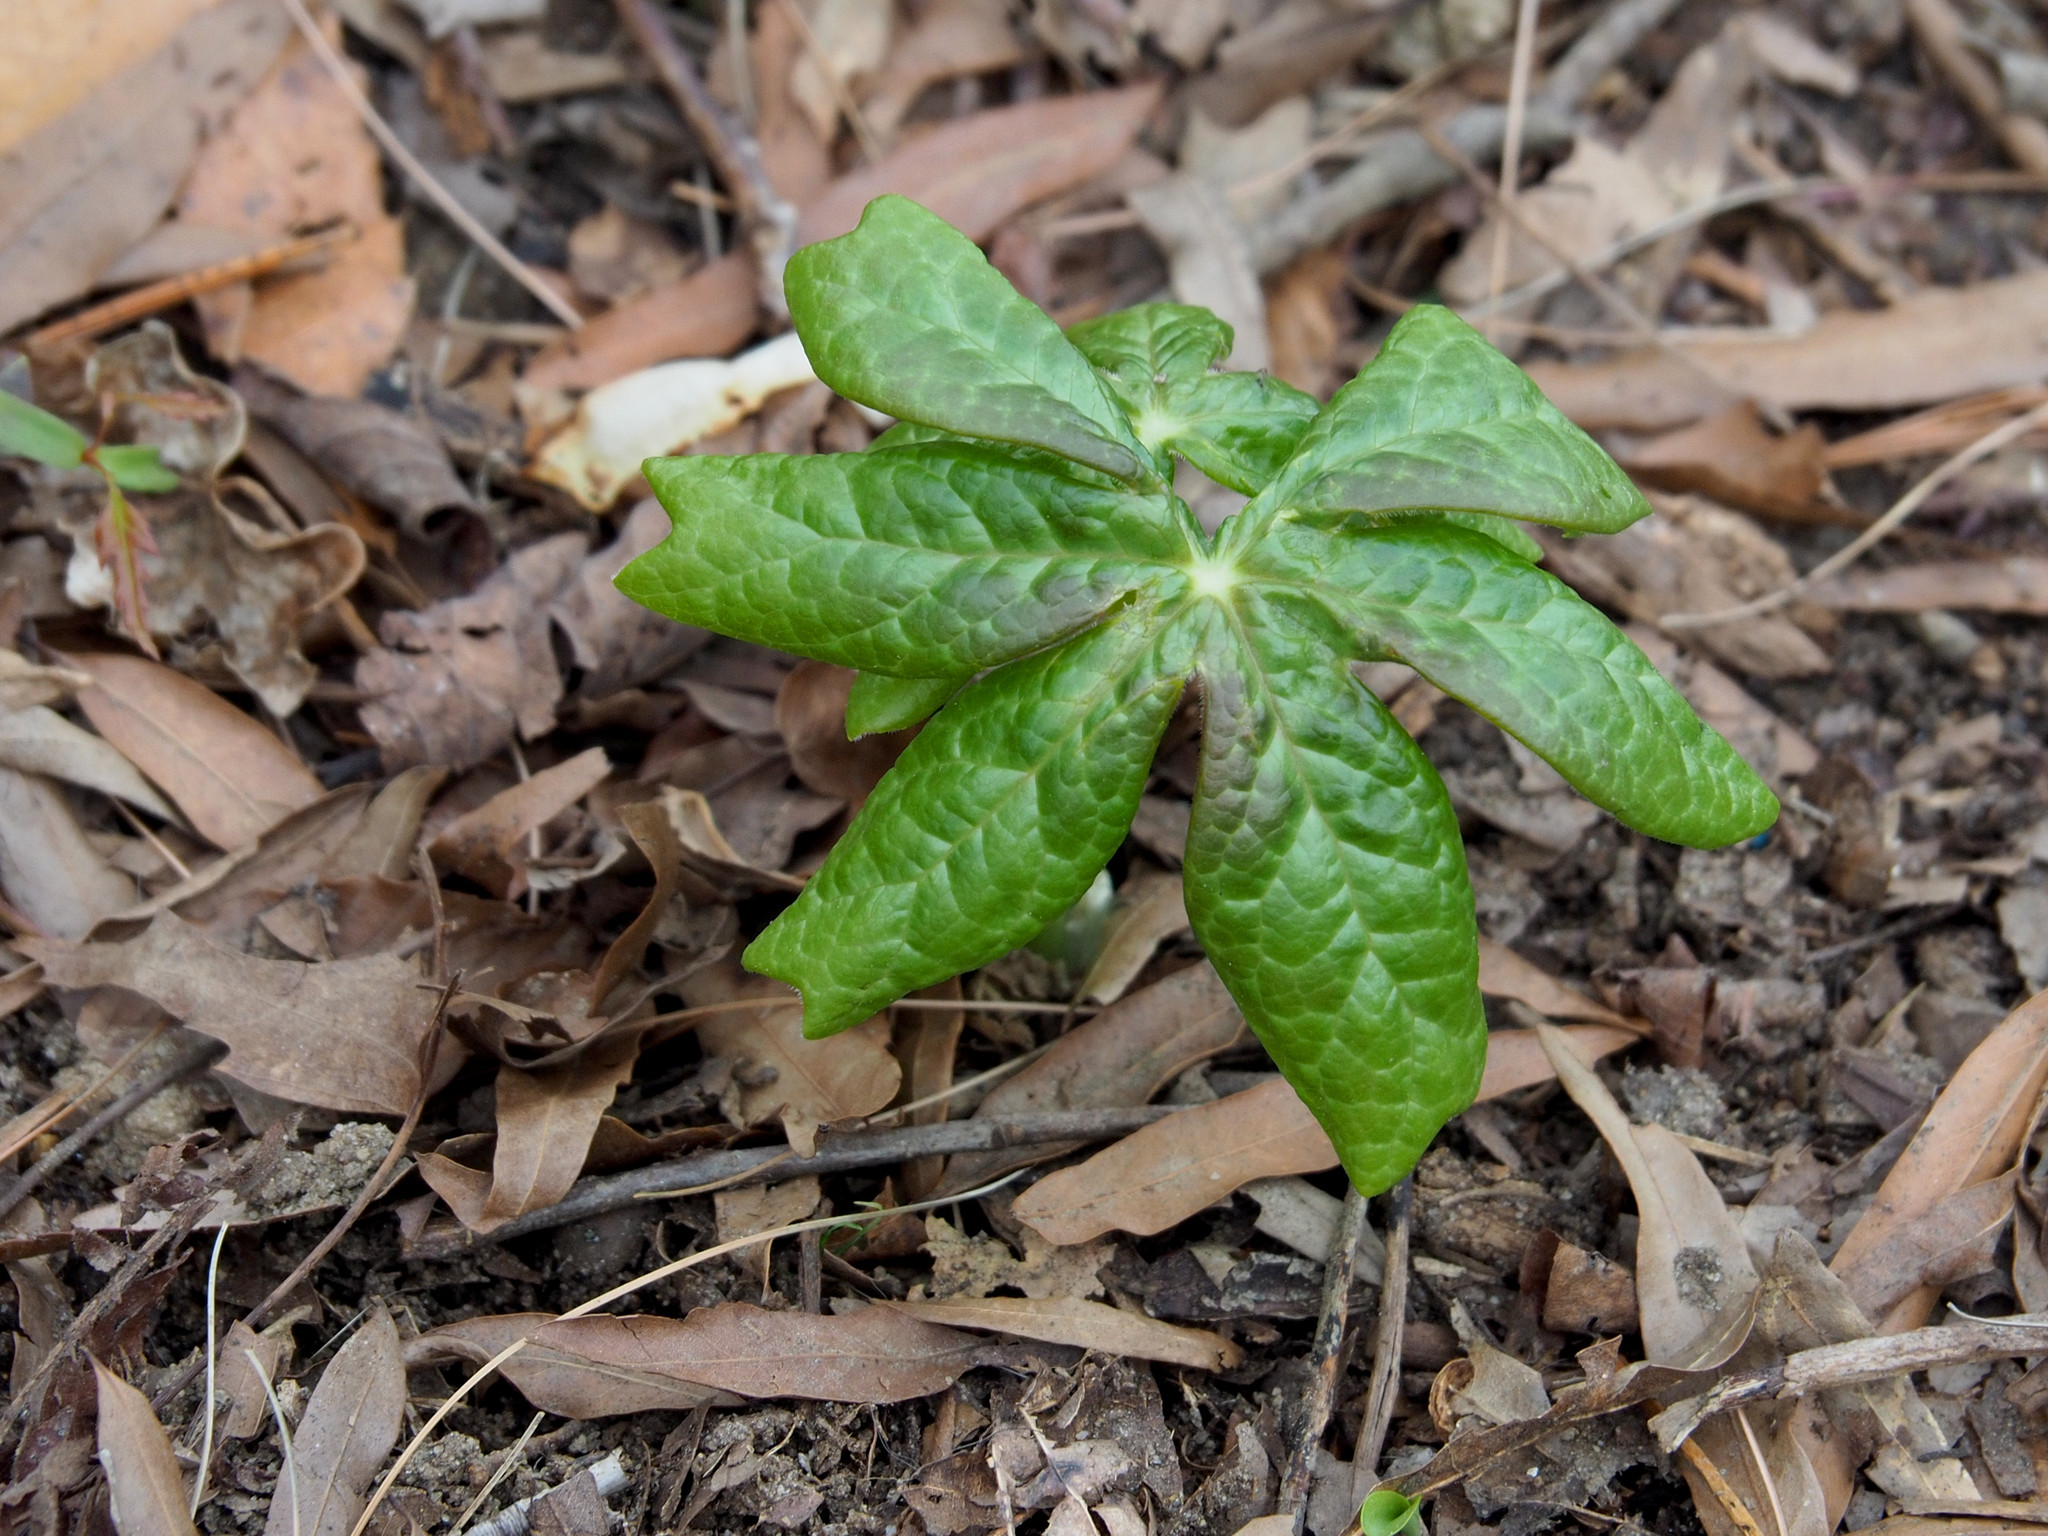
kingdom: Plantae
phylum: Tracheophyta
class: Magnoliopsida
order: Ranunculales
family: Berberidaceae
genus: Podophyllum
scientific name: Podophyllum peltatum
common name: Wild mandrake
